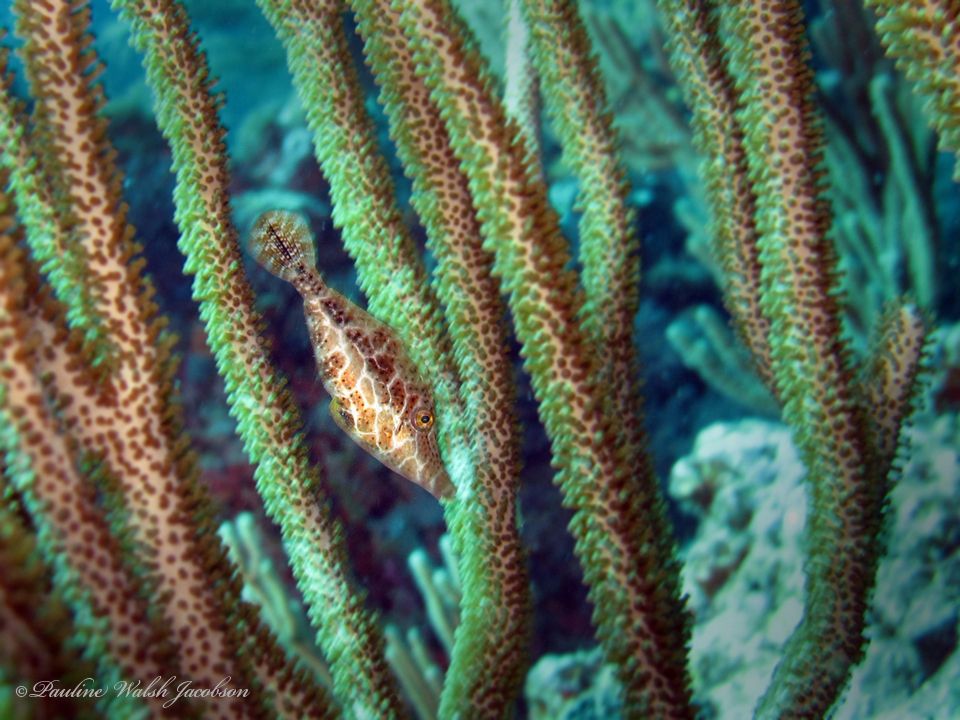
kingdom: Animalia
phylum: Chordata
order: Tetraodontiformes
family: Monacanthidae
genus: Monacanthus
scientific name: Monacanthus tuckeri
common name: Slender filefish
